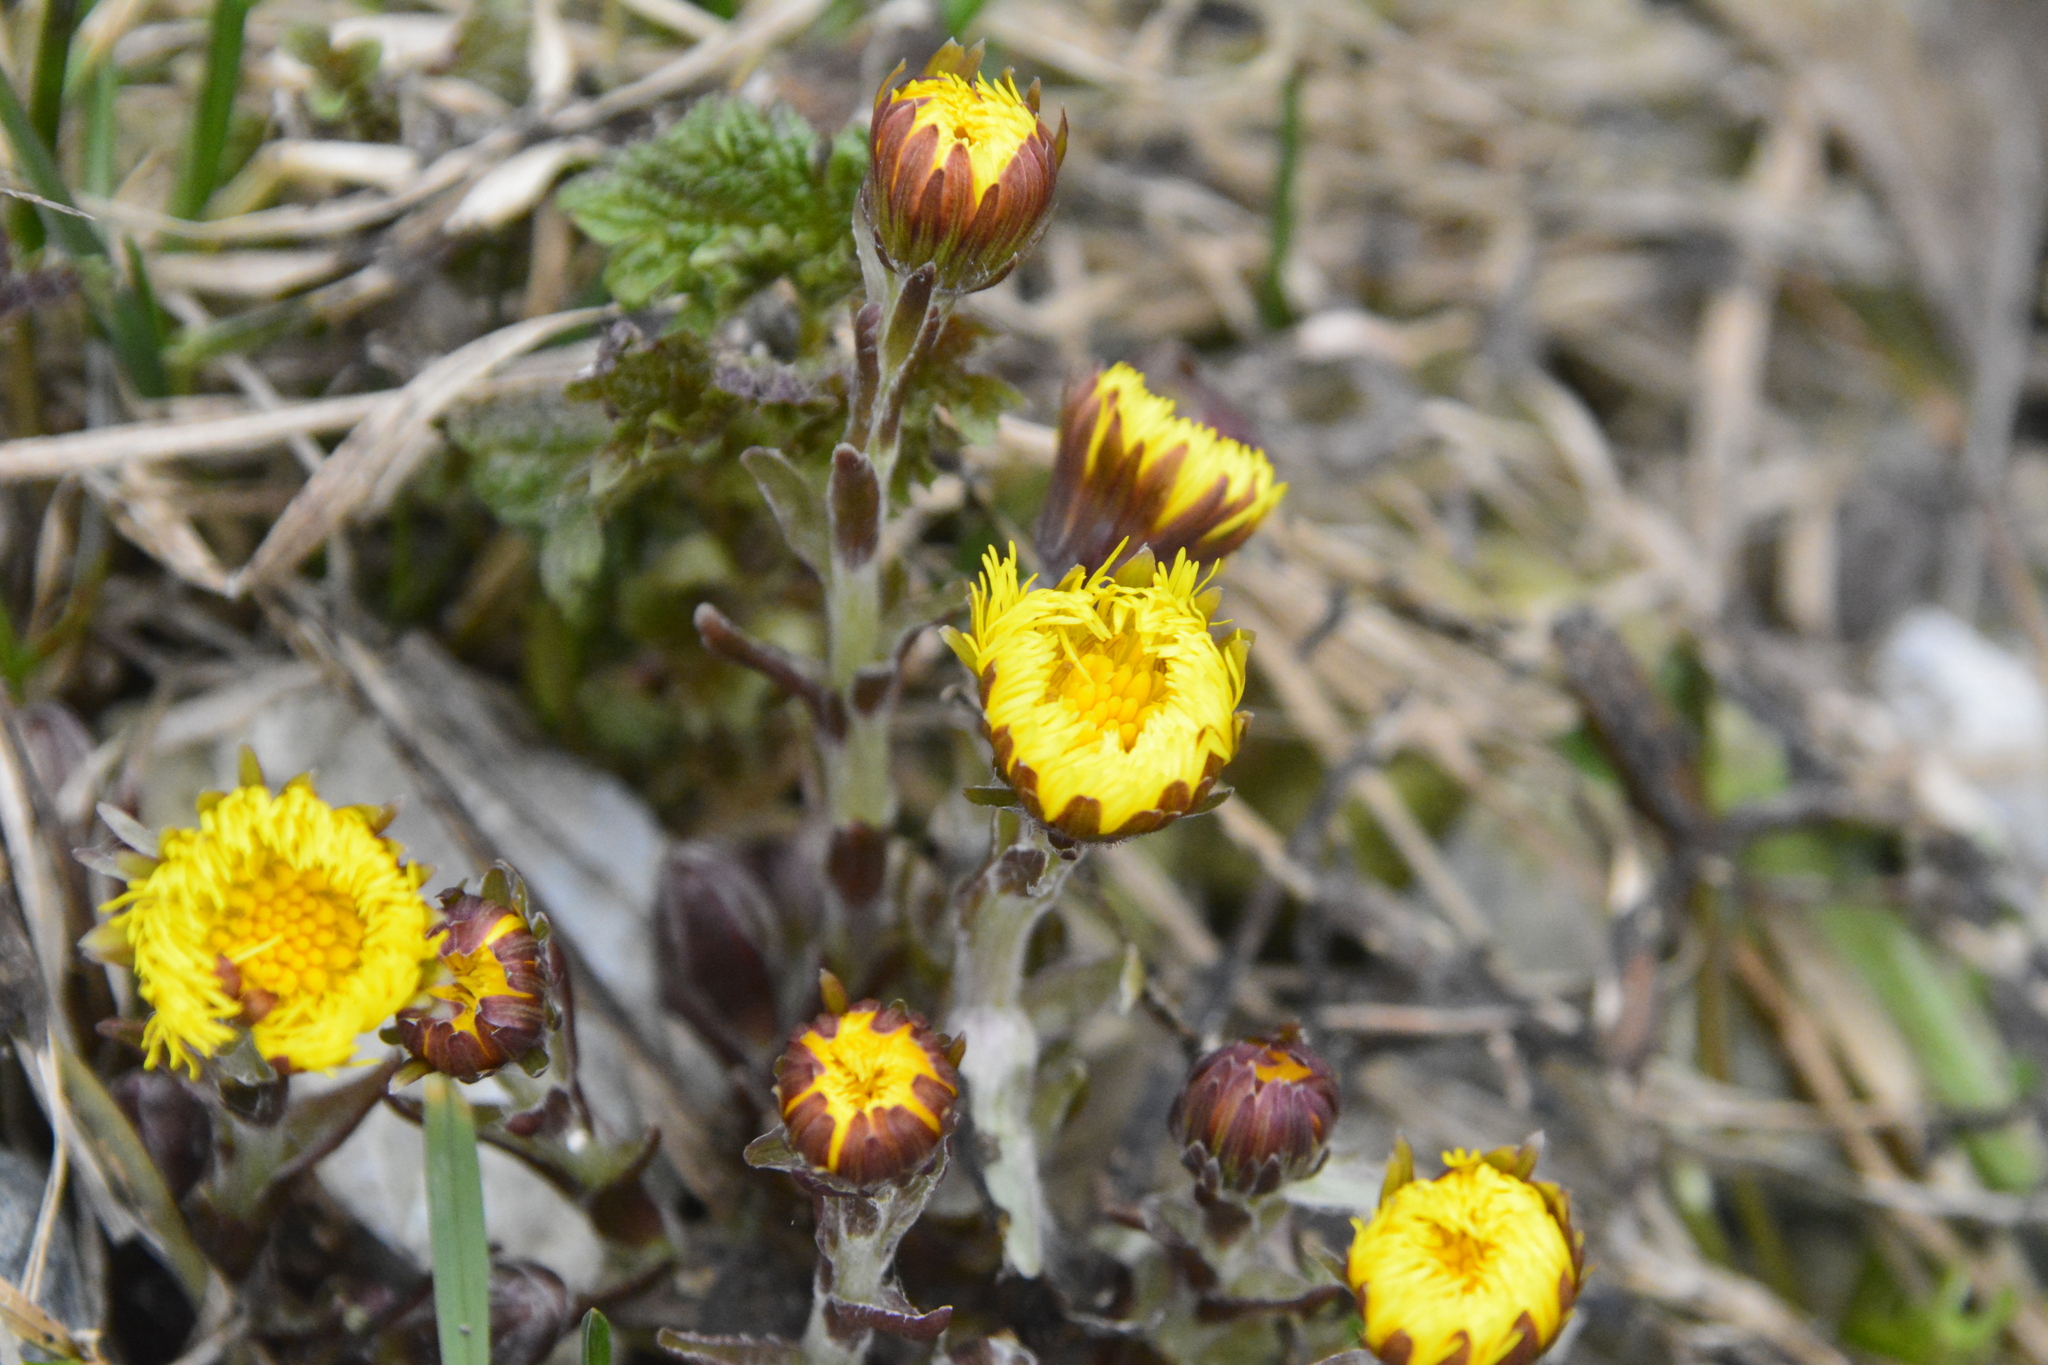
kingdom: Plantae
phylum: Tracheophyta
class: Magnoliopsida
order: Asterales
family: Asteraceae
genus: Tussilago
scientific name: Tussilago farfara
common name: Coltsfoot
